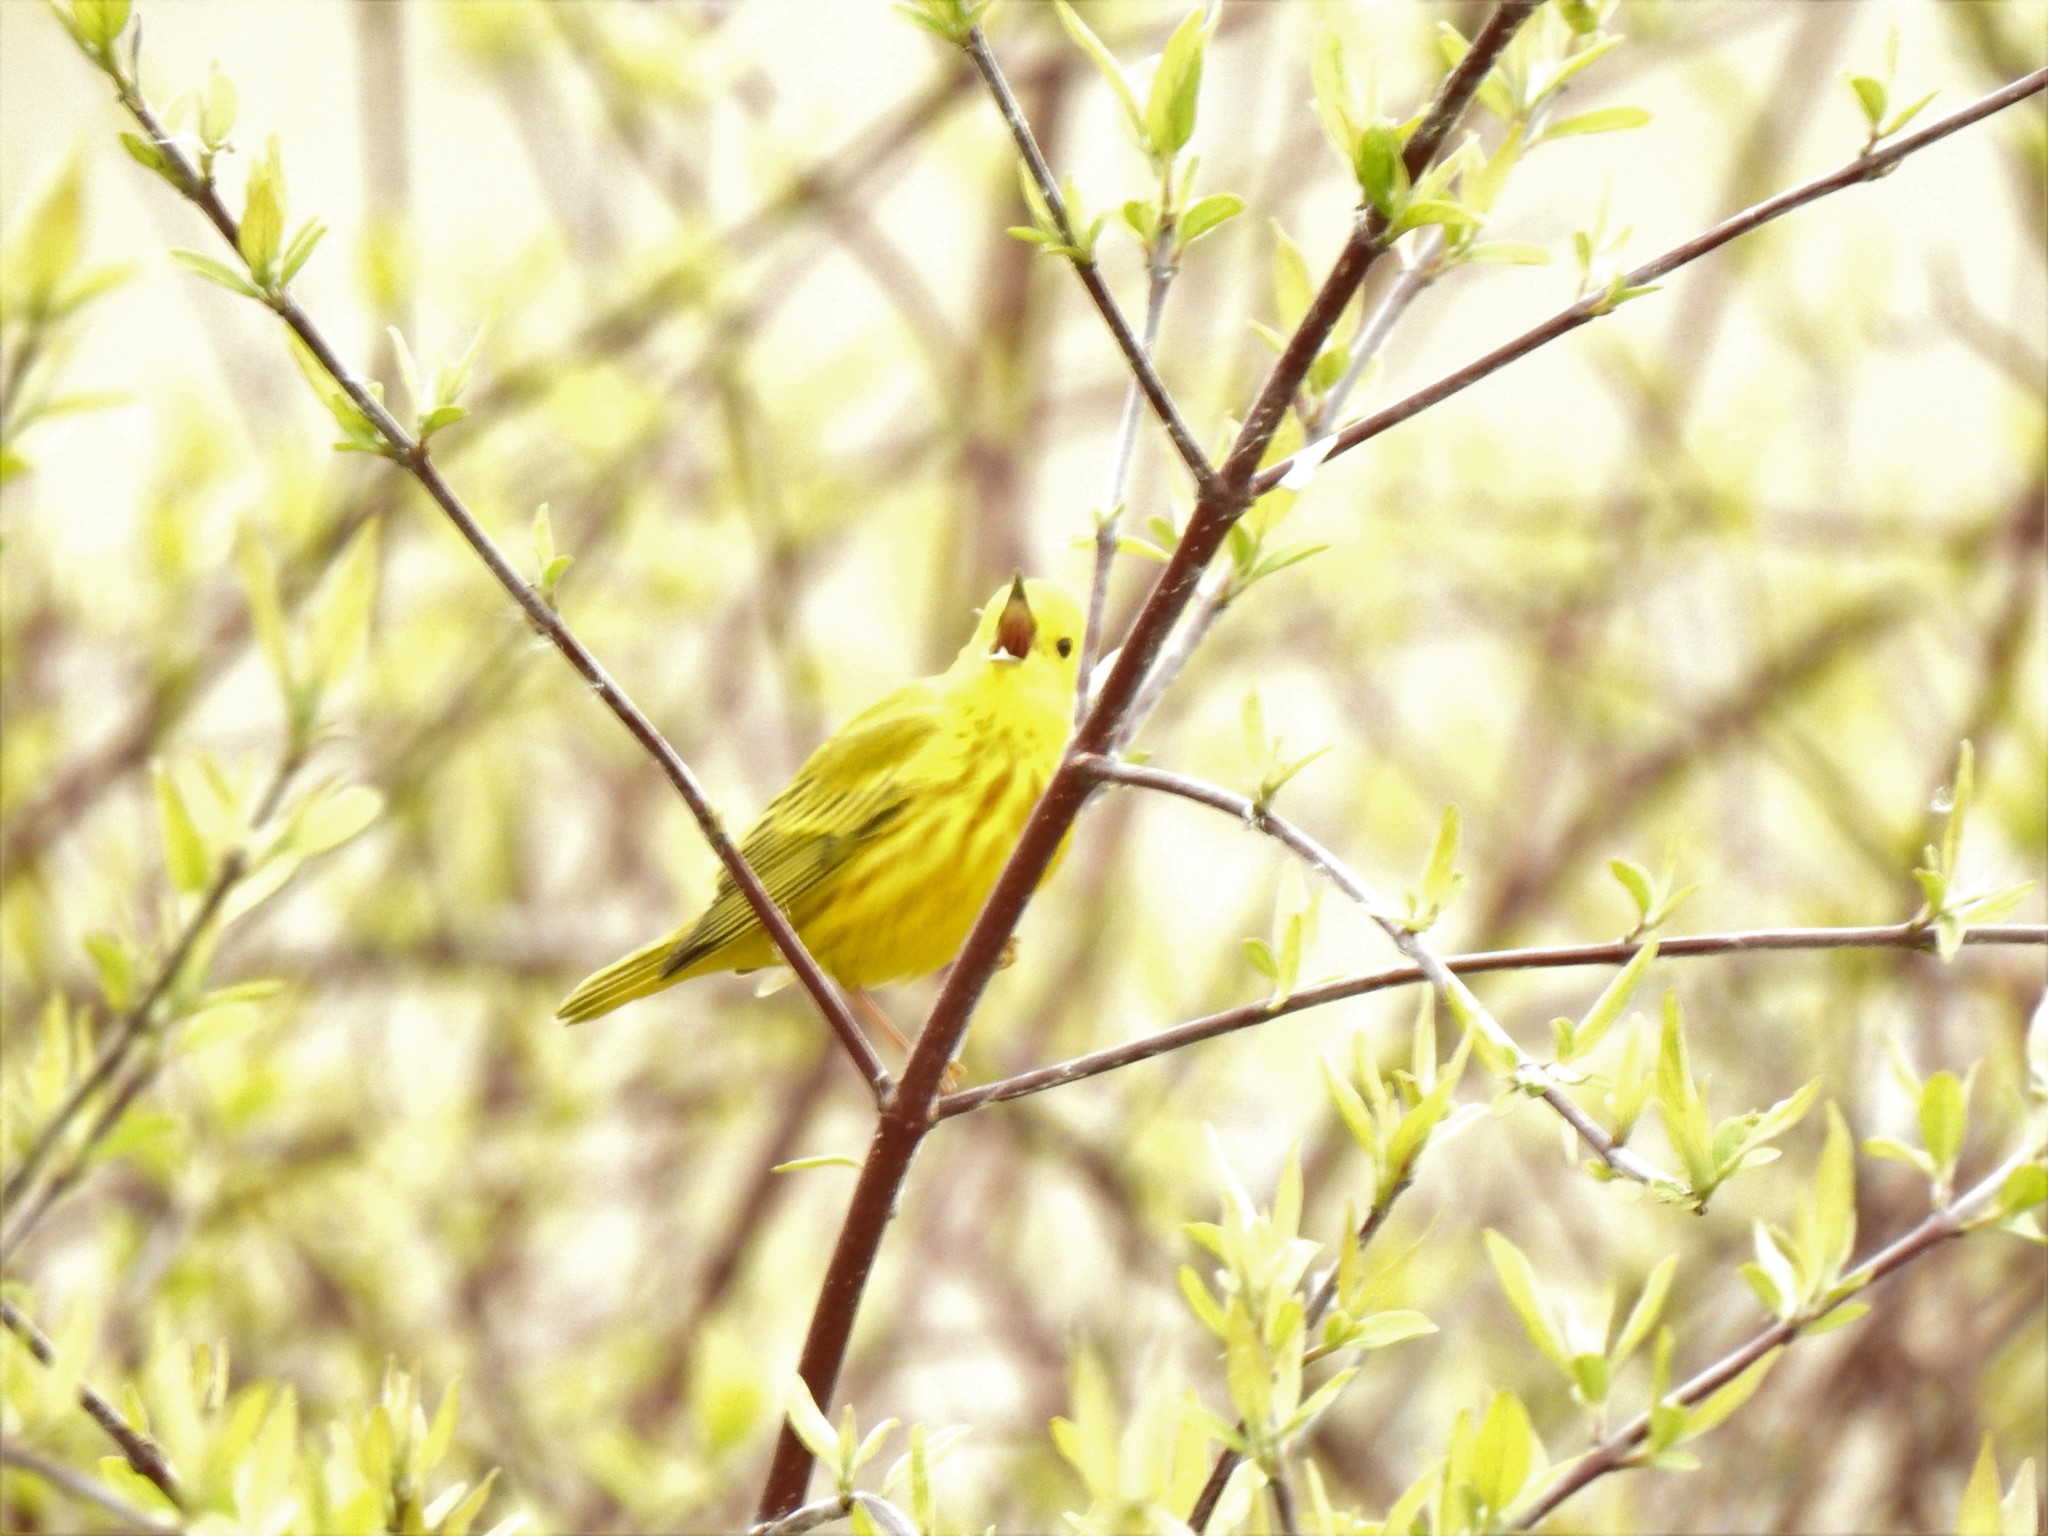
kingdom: Animalia
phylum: Chordata
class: Aves
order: Passeriformes
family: Parulidae
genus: Setophaga
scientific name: Setophaga petechia
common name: Yellow warbler
